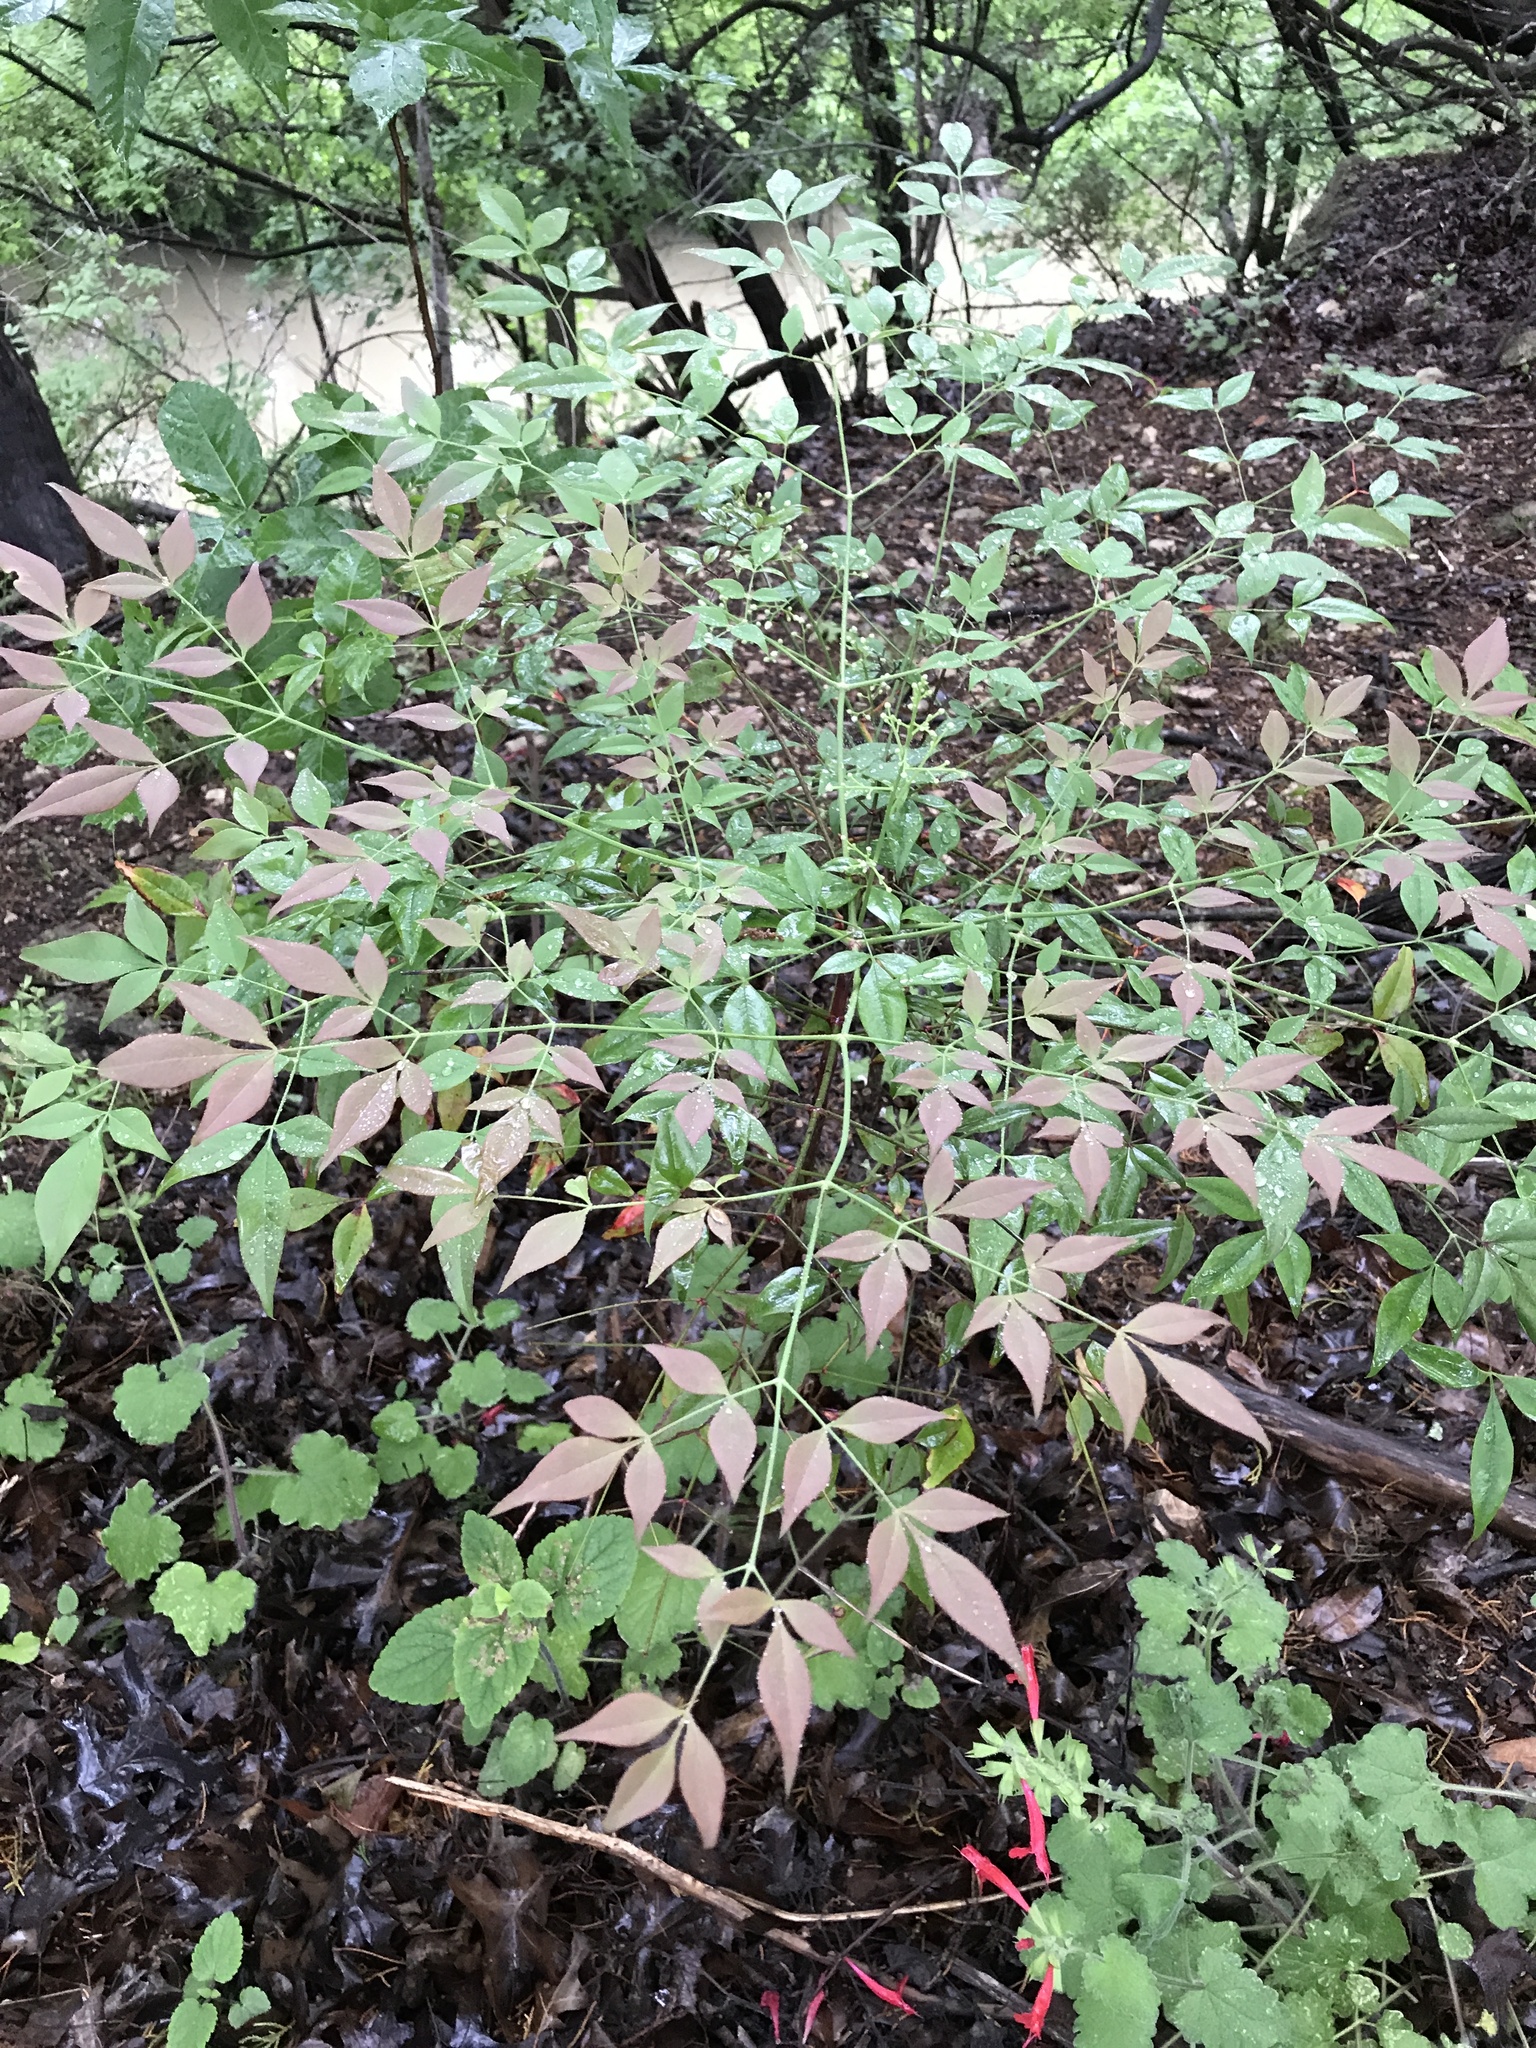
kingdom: Plantae
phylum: Tracheophyta
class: Magnoliopsida
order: Ranunculales
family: Berberidaceae
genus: Nandina
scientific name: Nandina domestica
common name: Sacred bamboo
